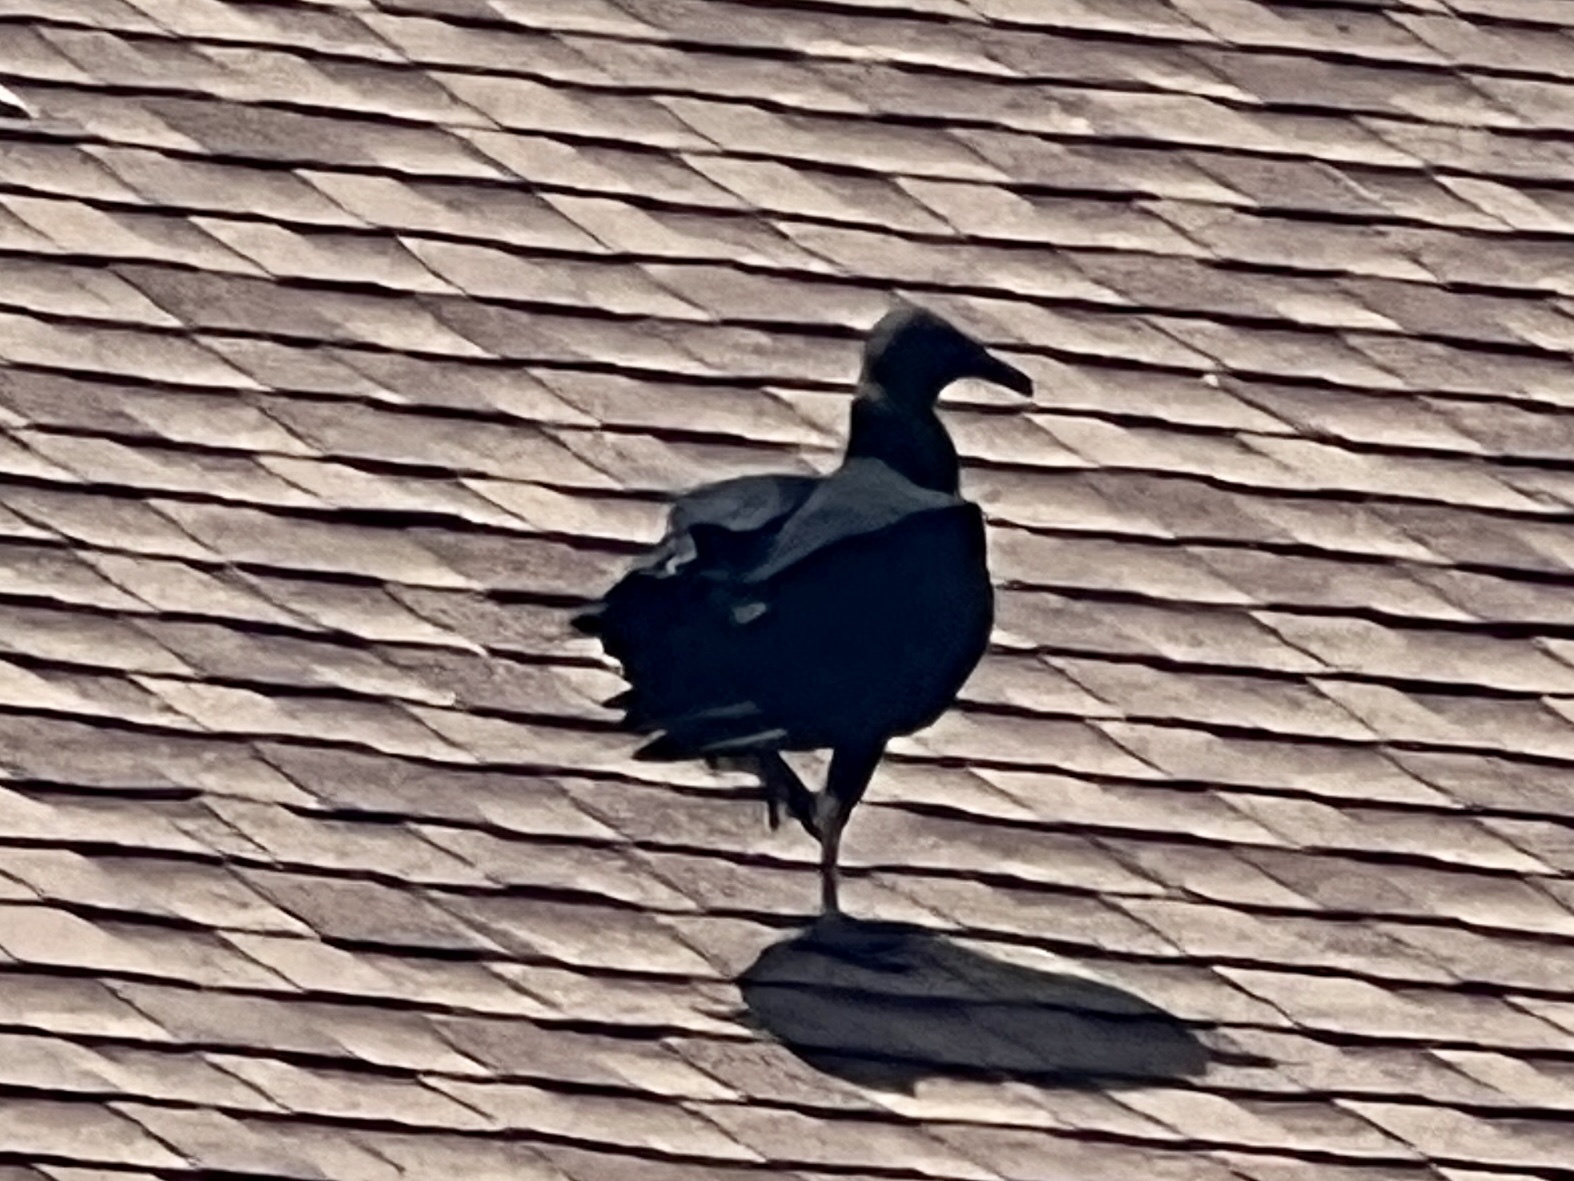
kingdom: Animalia
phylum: Chordata
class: Aves
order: Accipitriformes
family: Cathartidae
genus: Coragyps
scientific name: Coragyps atratus
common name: Black vulture
